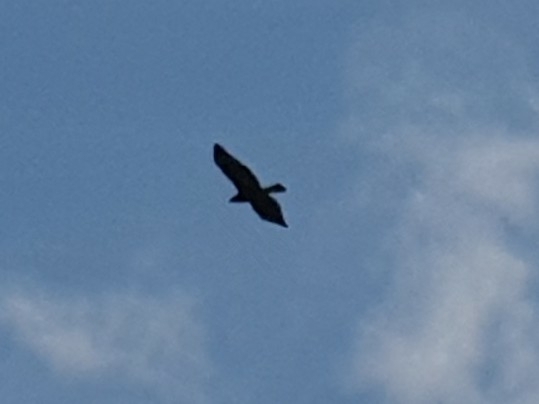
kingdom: Animalia
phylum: Chordata
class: Aves
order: Accipitriformes
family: Accipitridae
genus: Buteo
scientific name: Buteo buteo
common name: Common buzzard
